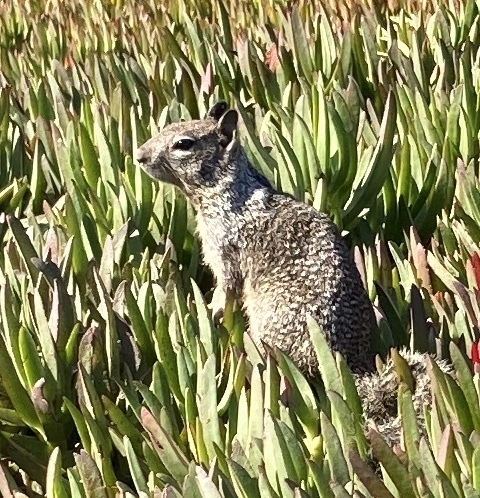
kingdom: Animalia
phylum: Chordata
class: Mammalia
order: Rodentia
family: Sciuridae
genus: Otospermophilus
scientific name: Otospermophilus beecheyi
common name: California ground squirrel
